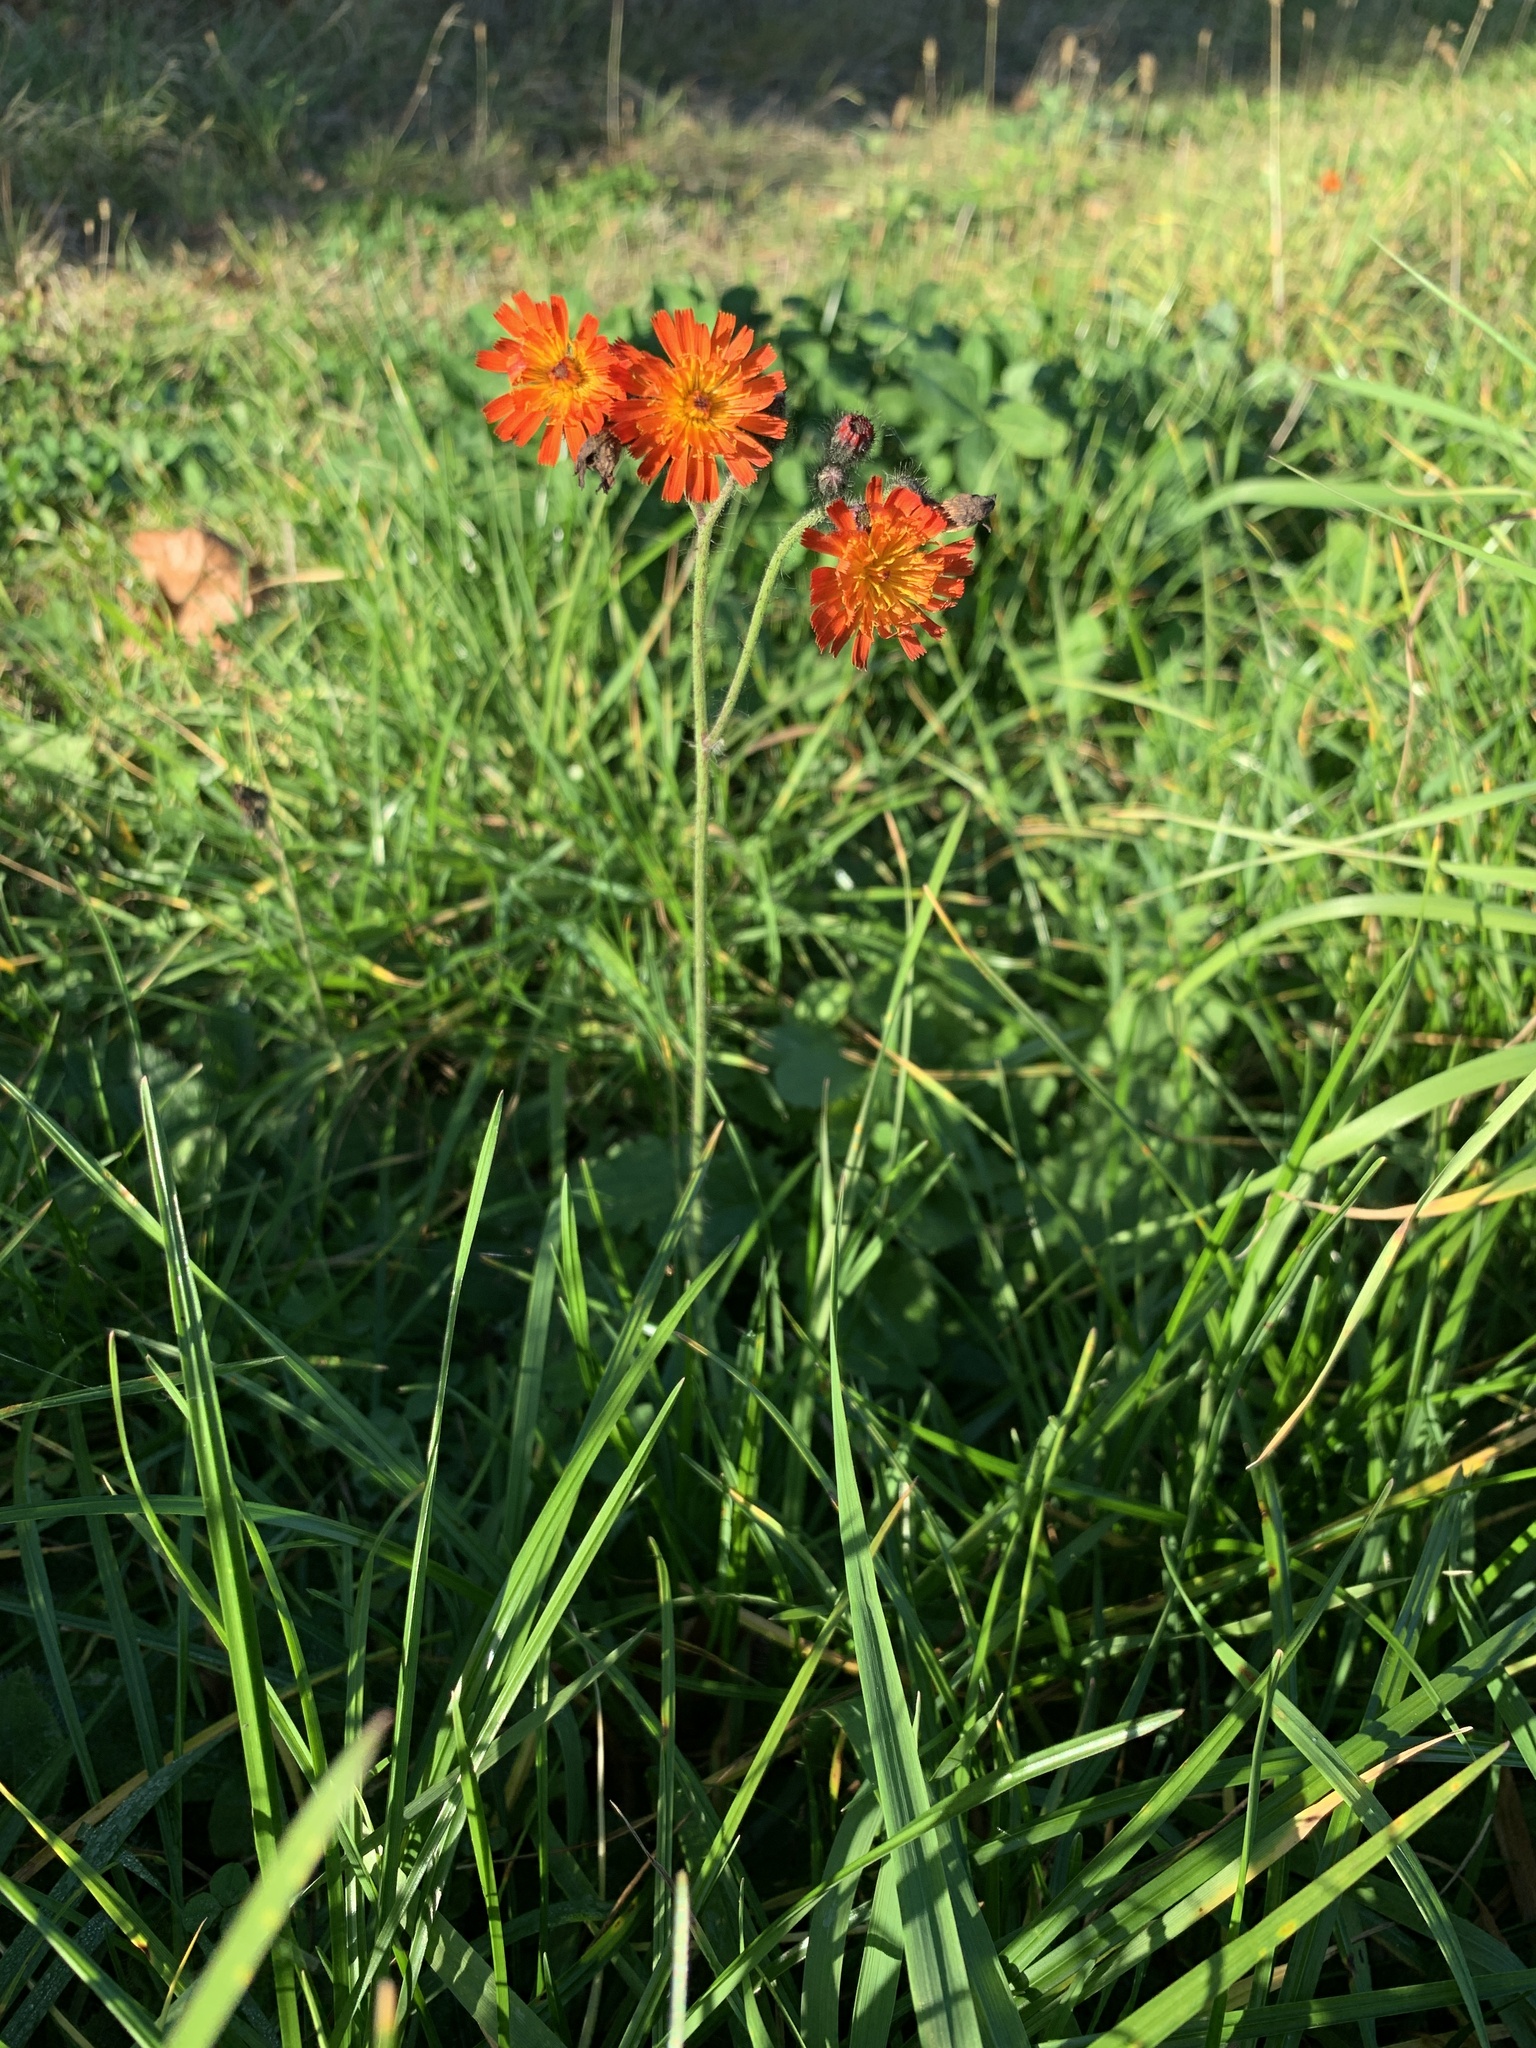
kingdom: Plantae
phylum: Tracheophyta
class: Magnoliopsida
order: Asterales
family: Asteraceae
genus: Pilosella
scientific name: Pilosella aurantiaca
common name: Fox-and-cubs
